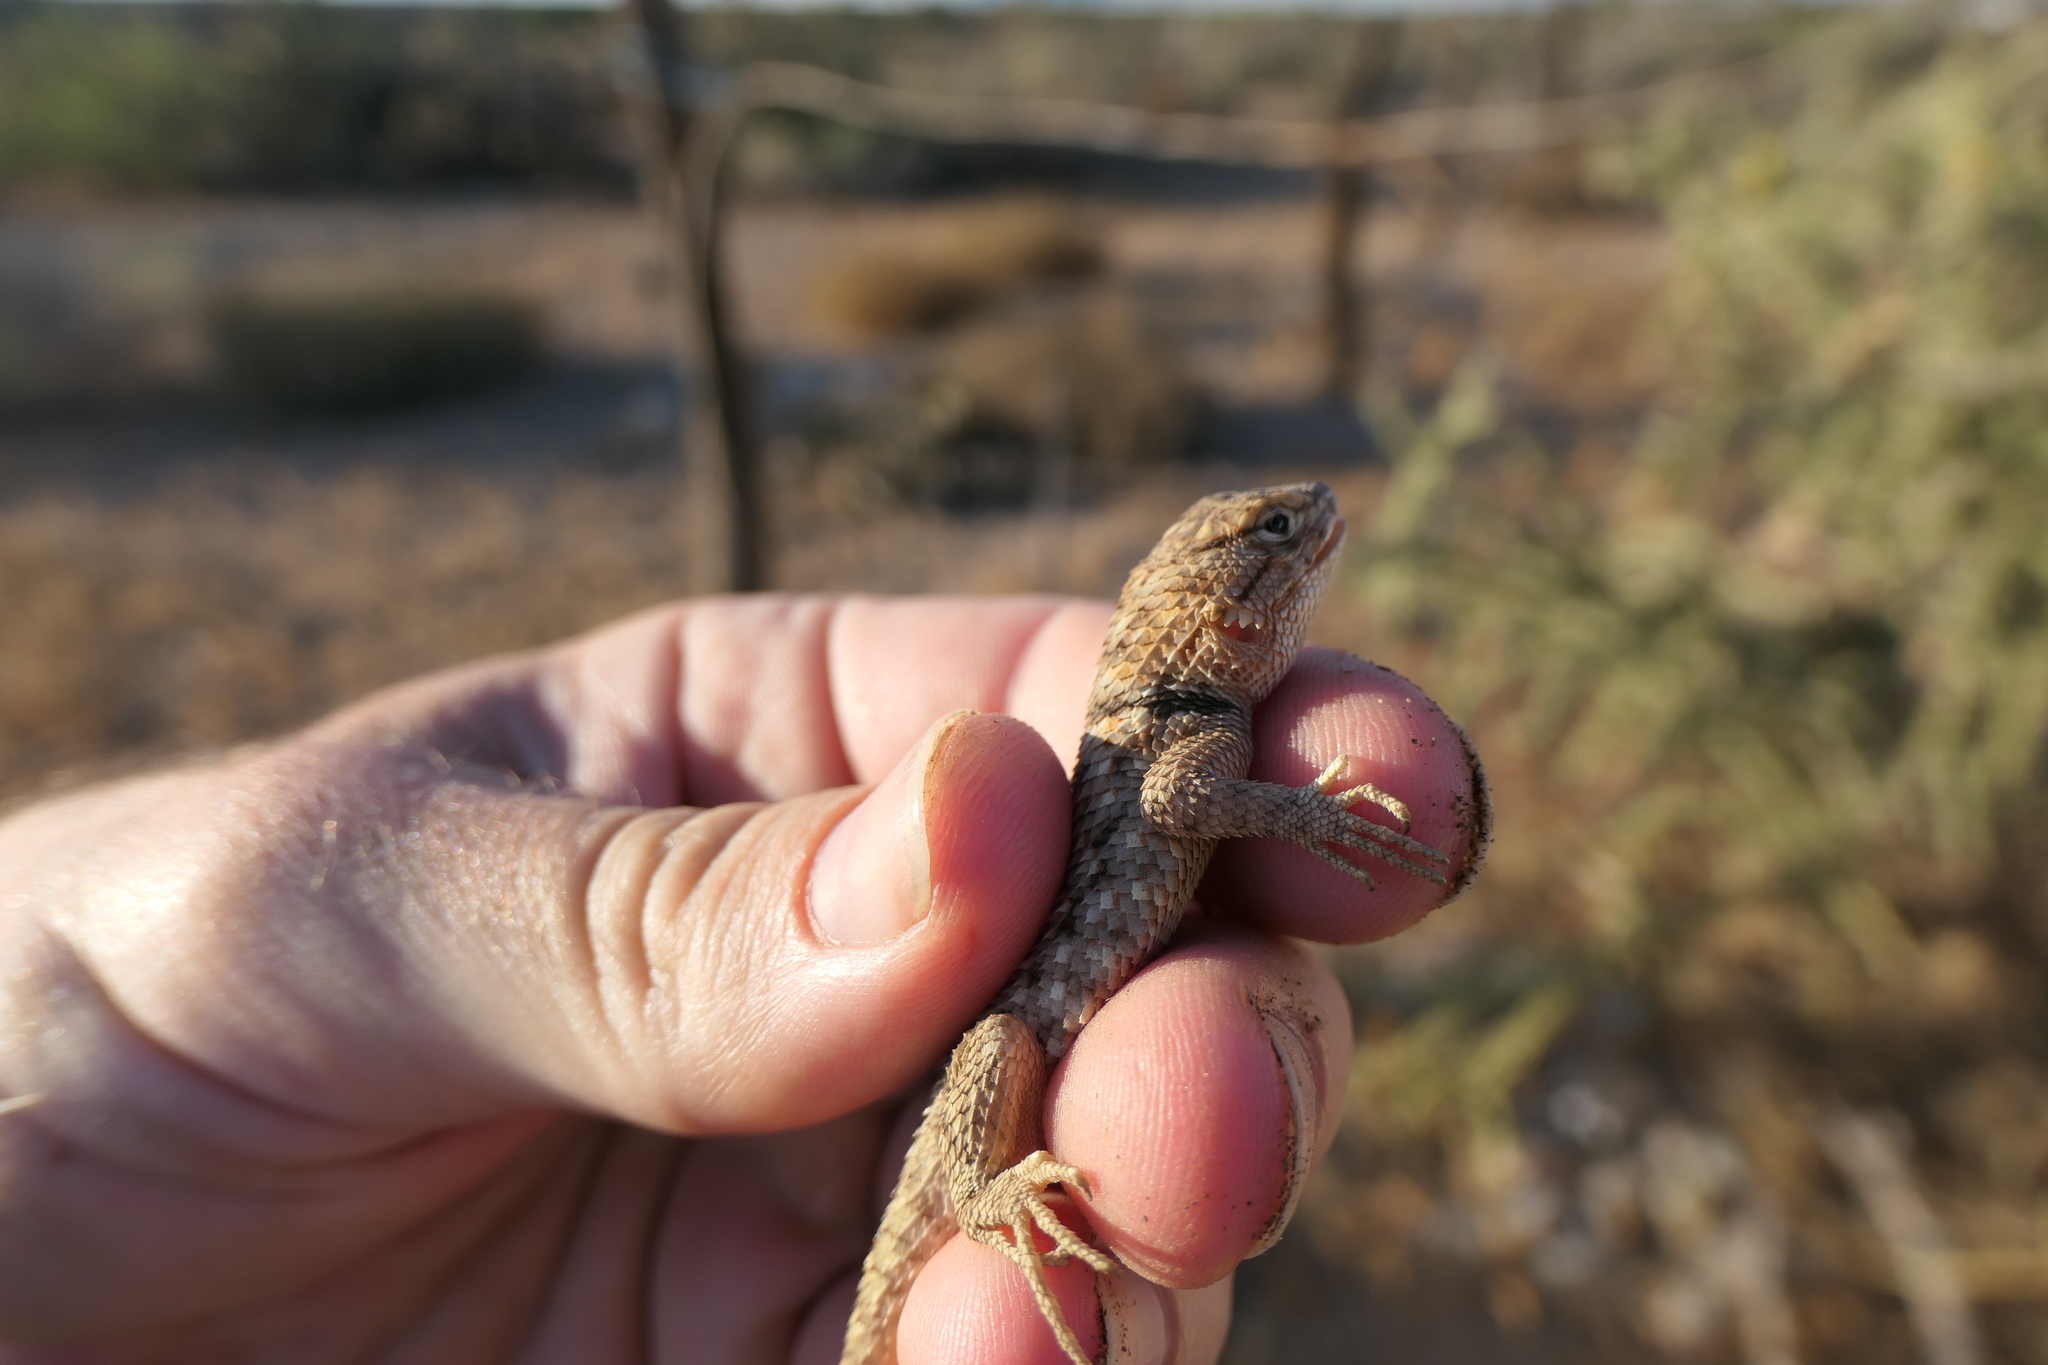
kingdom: Animalia
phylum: Chordata
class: Squamata
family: Phrynosomatidae
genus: Sceloporus
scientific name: Sceloporus bimaculosus
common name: Twin-spotted spiny lizard
